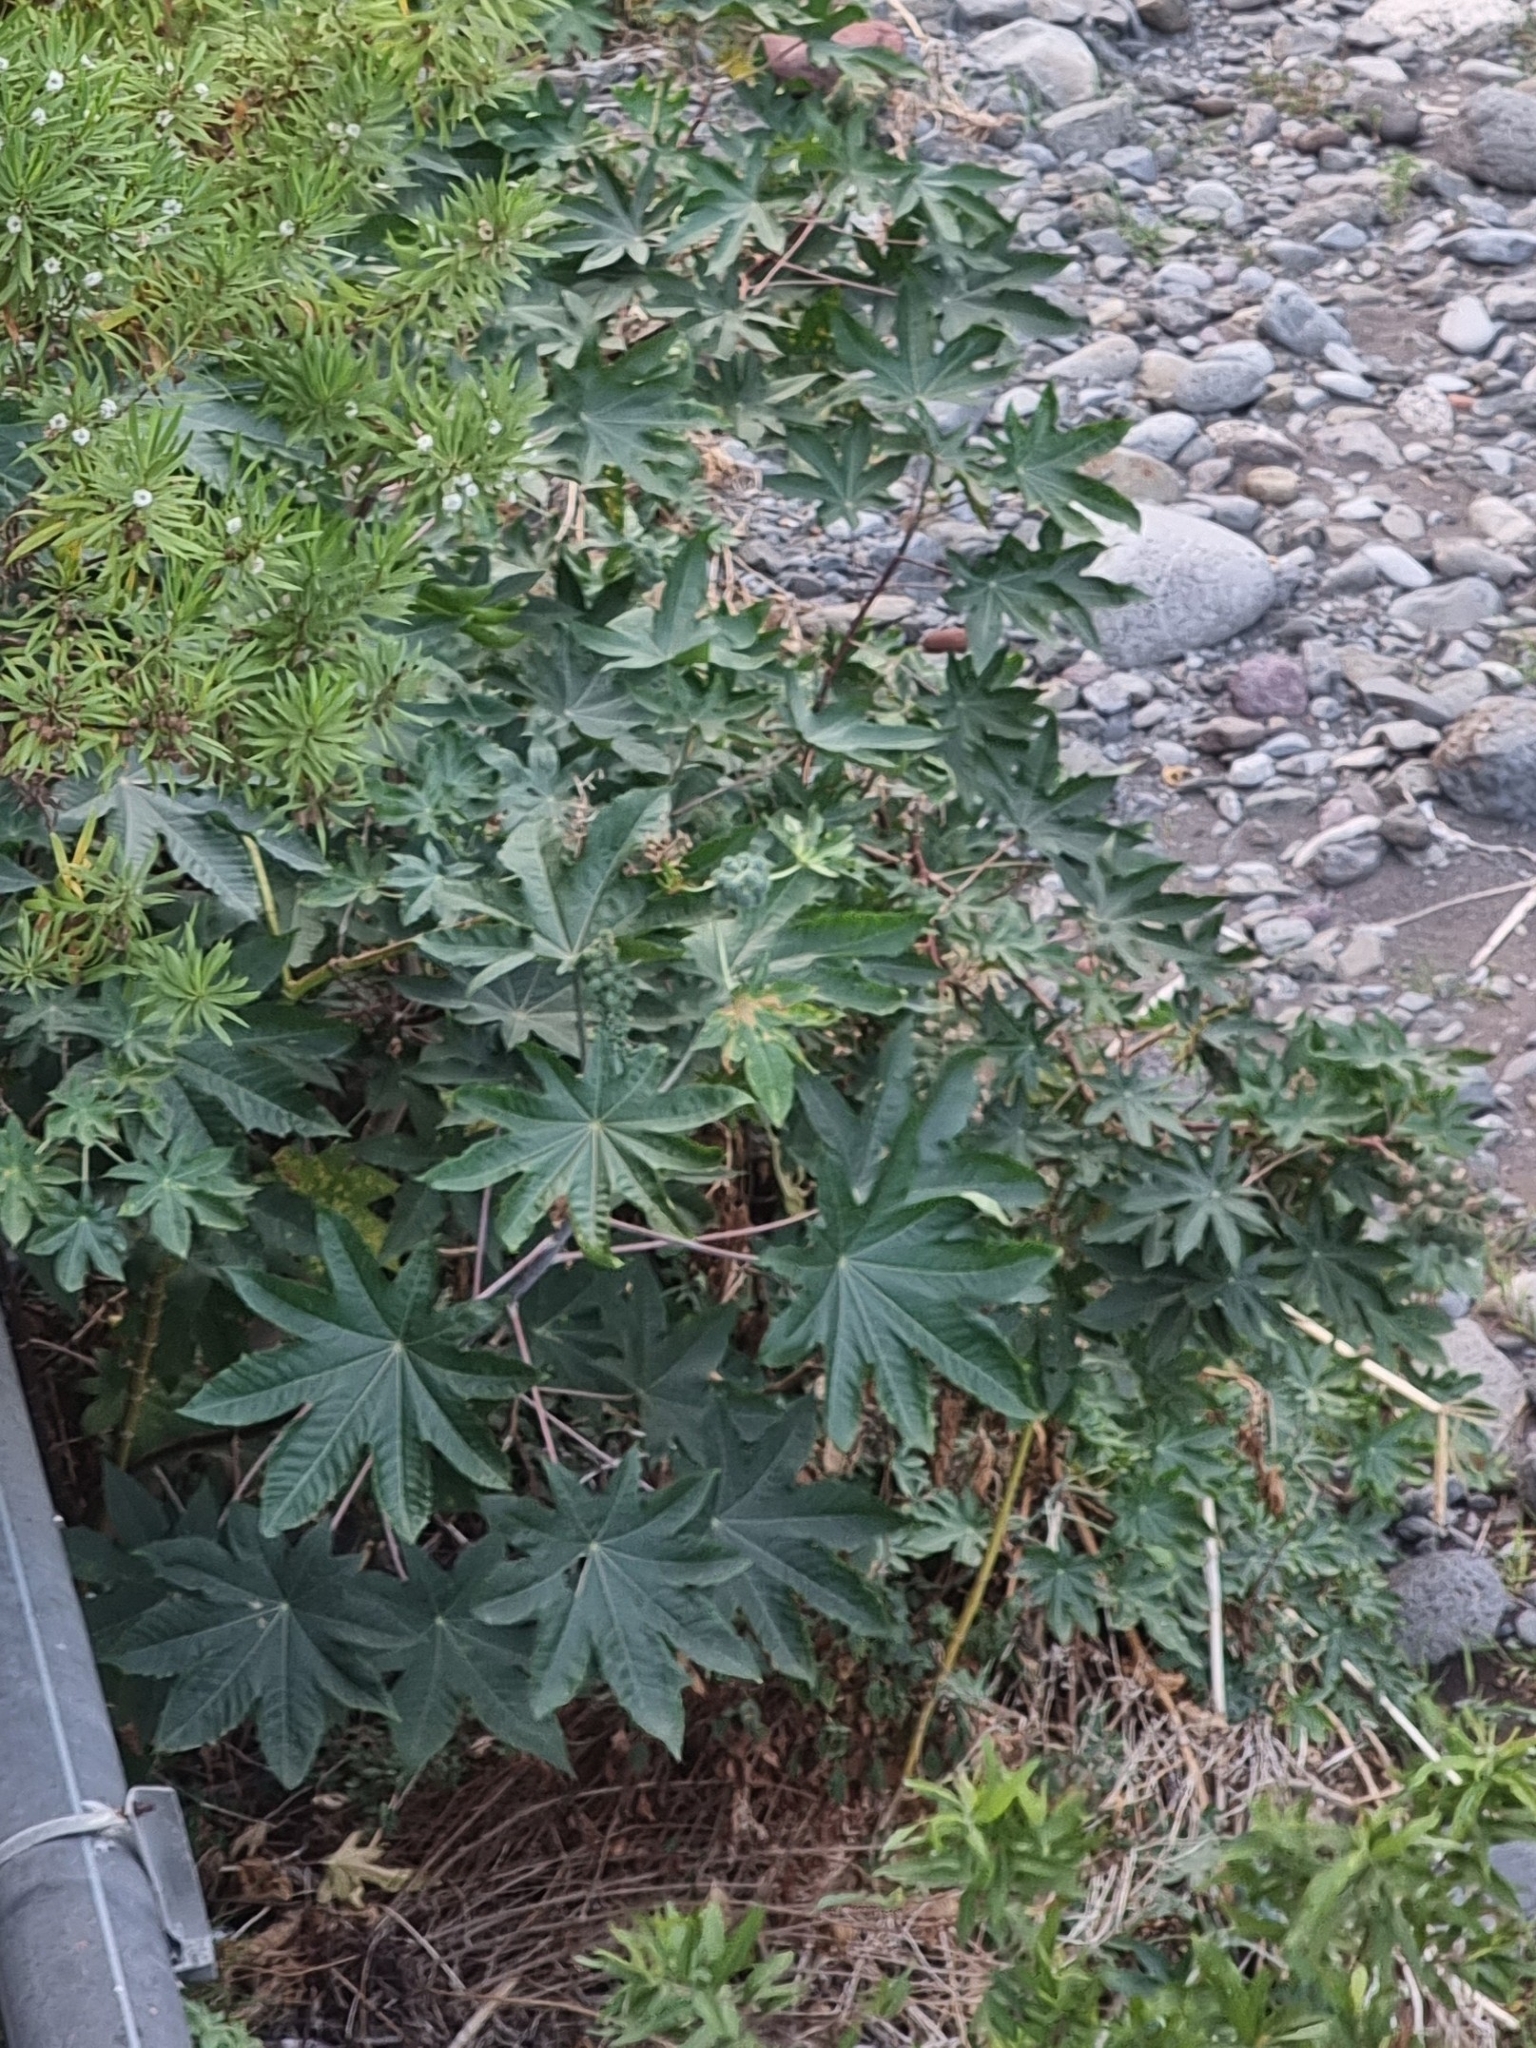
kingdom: Plantae
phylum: Tracheophyta
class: Magnoliopsida
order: Malpighiales
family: Euphorbiaceae
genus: Ricinus
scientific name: Ricinus communis
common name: Castor-oil-plant
